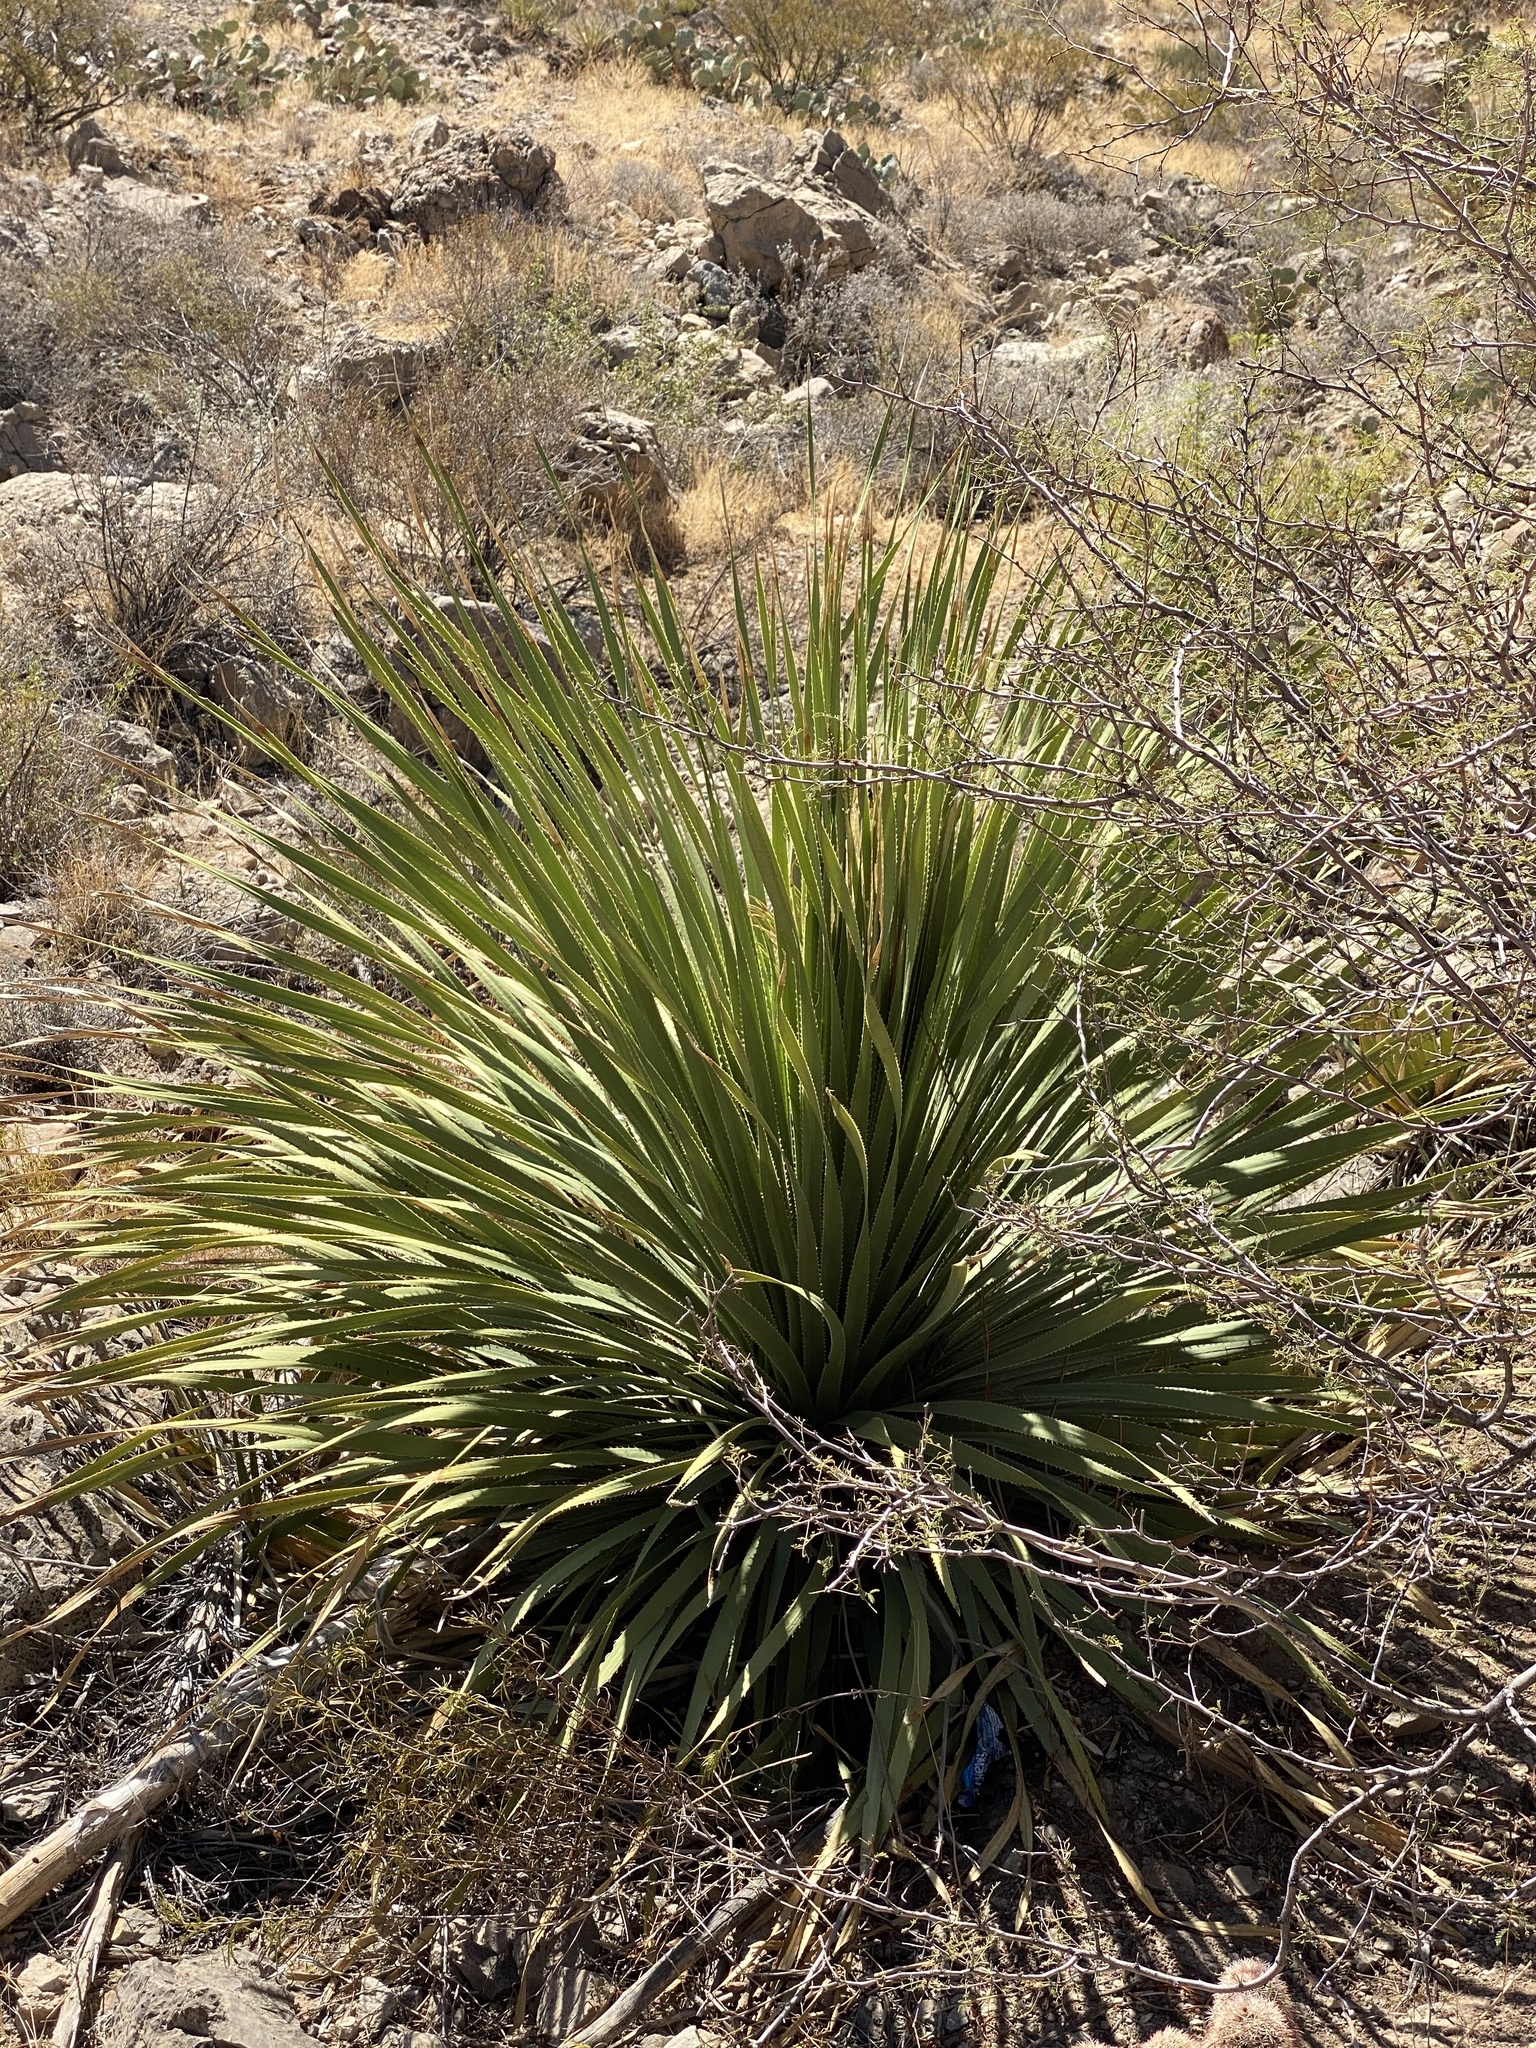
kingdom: Plantae
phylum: Tracheophyta
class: Liliopsida
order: Asparagales
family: Asparagaceae
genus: Dasylirion
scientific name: Dasylirion wheeleri
